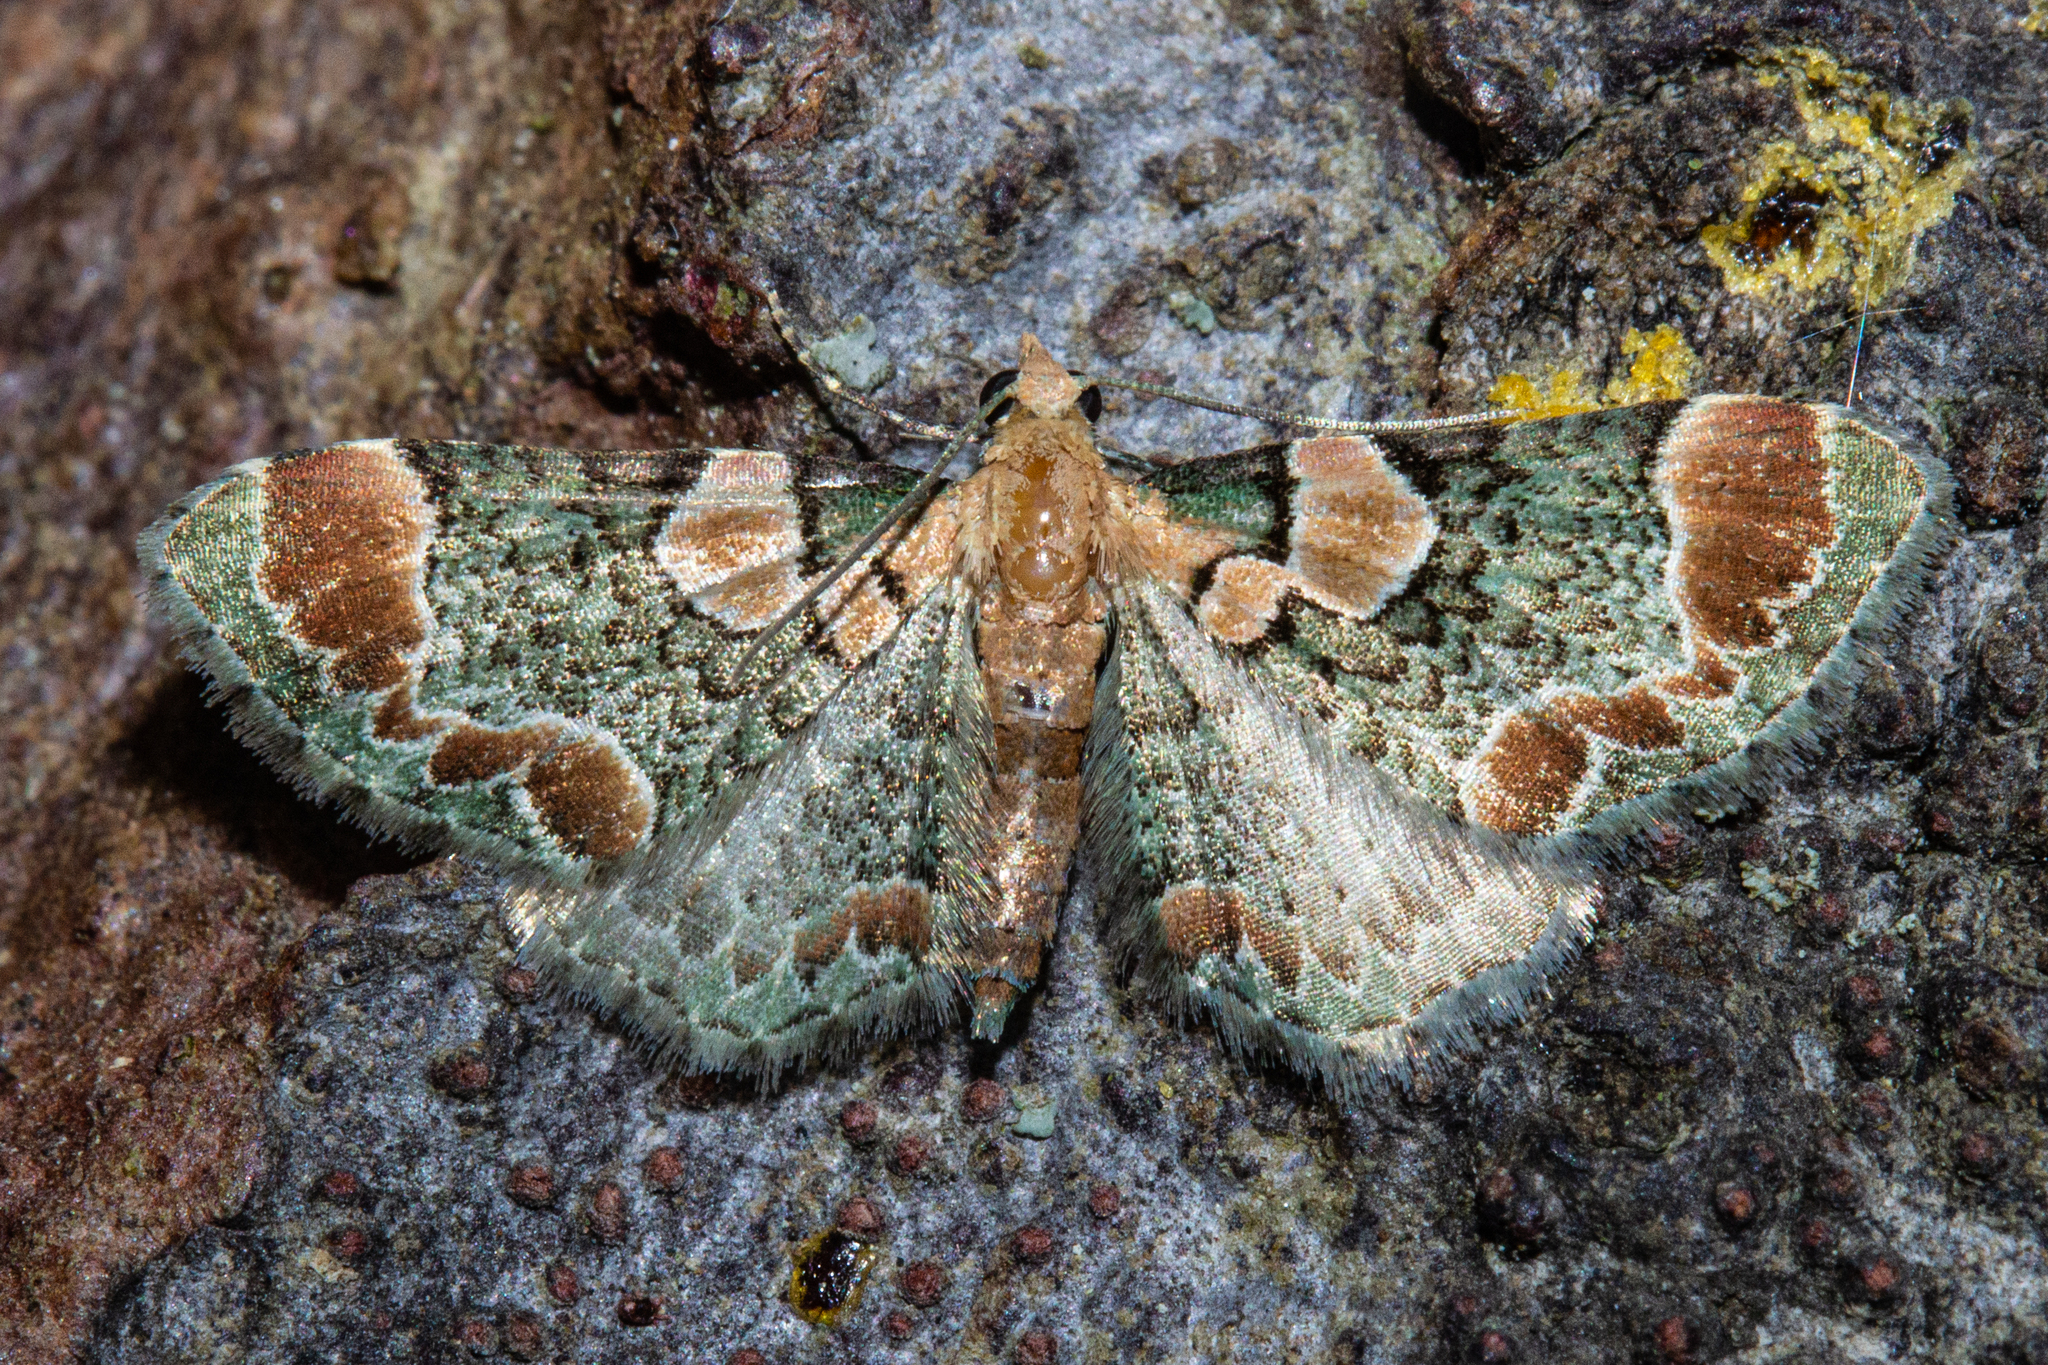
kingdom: Animalia
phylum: Arthropoda
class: Insecta
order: Lepidoptera
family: Geometridae
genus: Chloroclystis
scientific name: Chloroclystis
